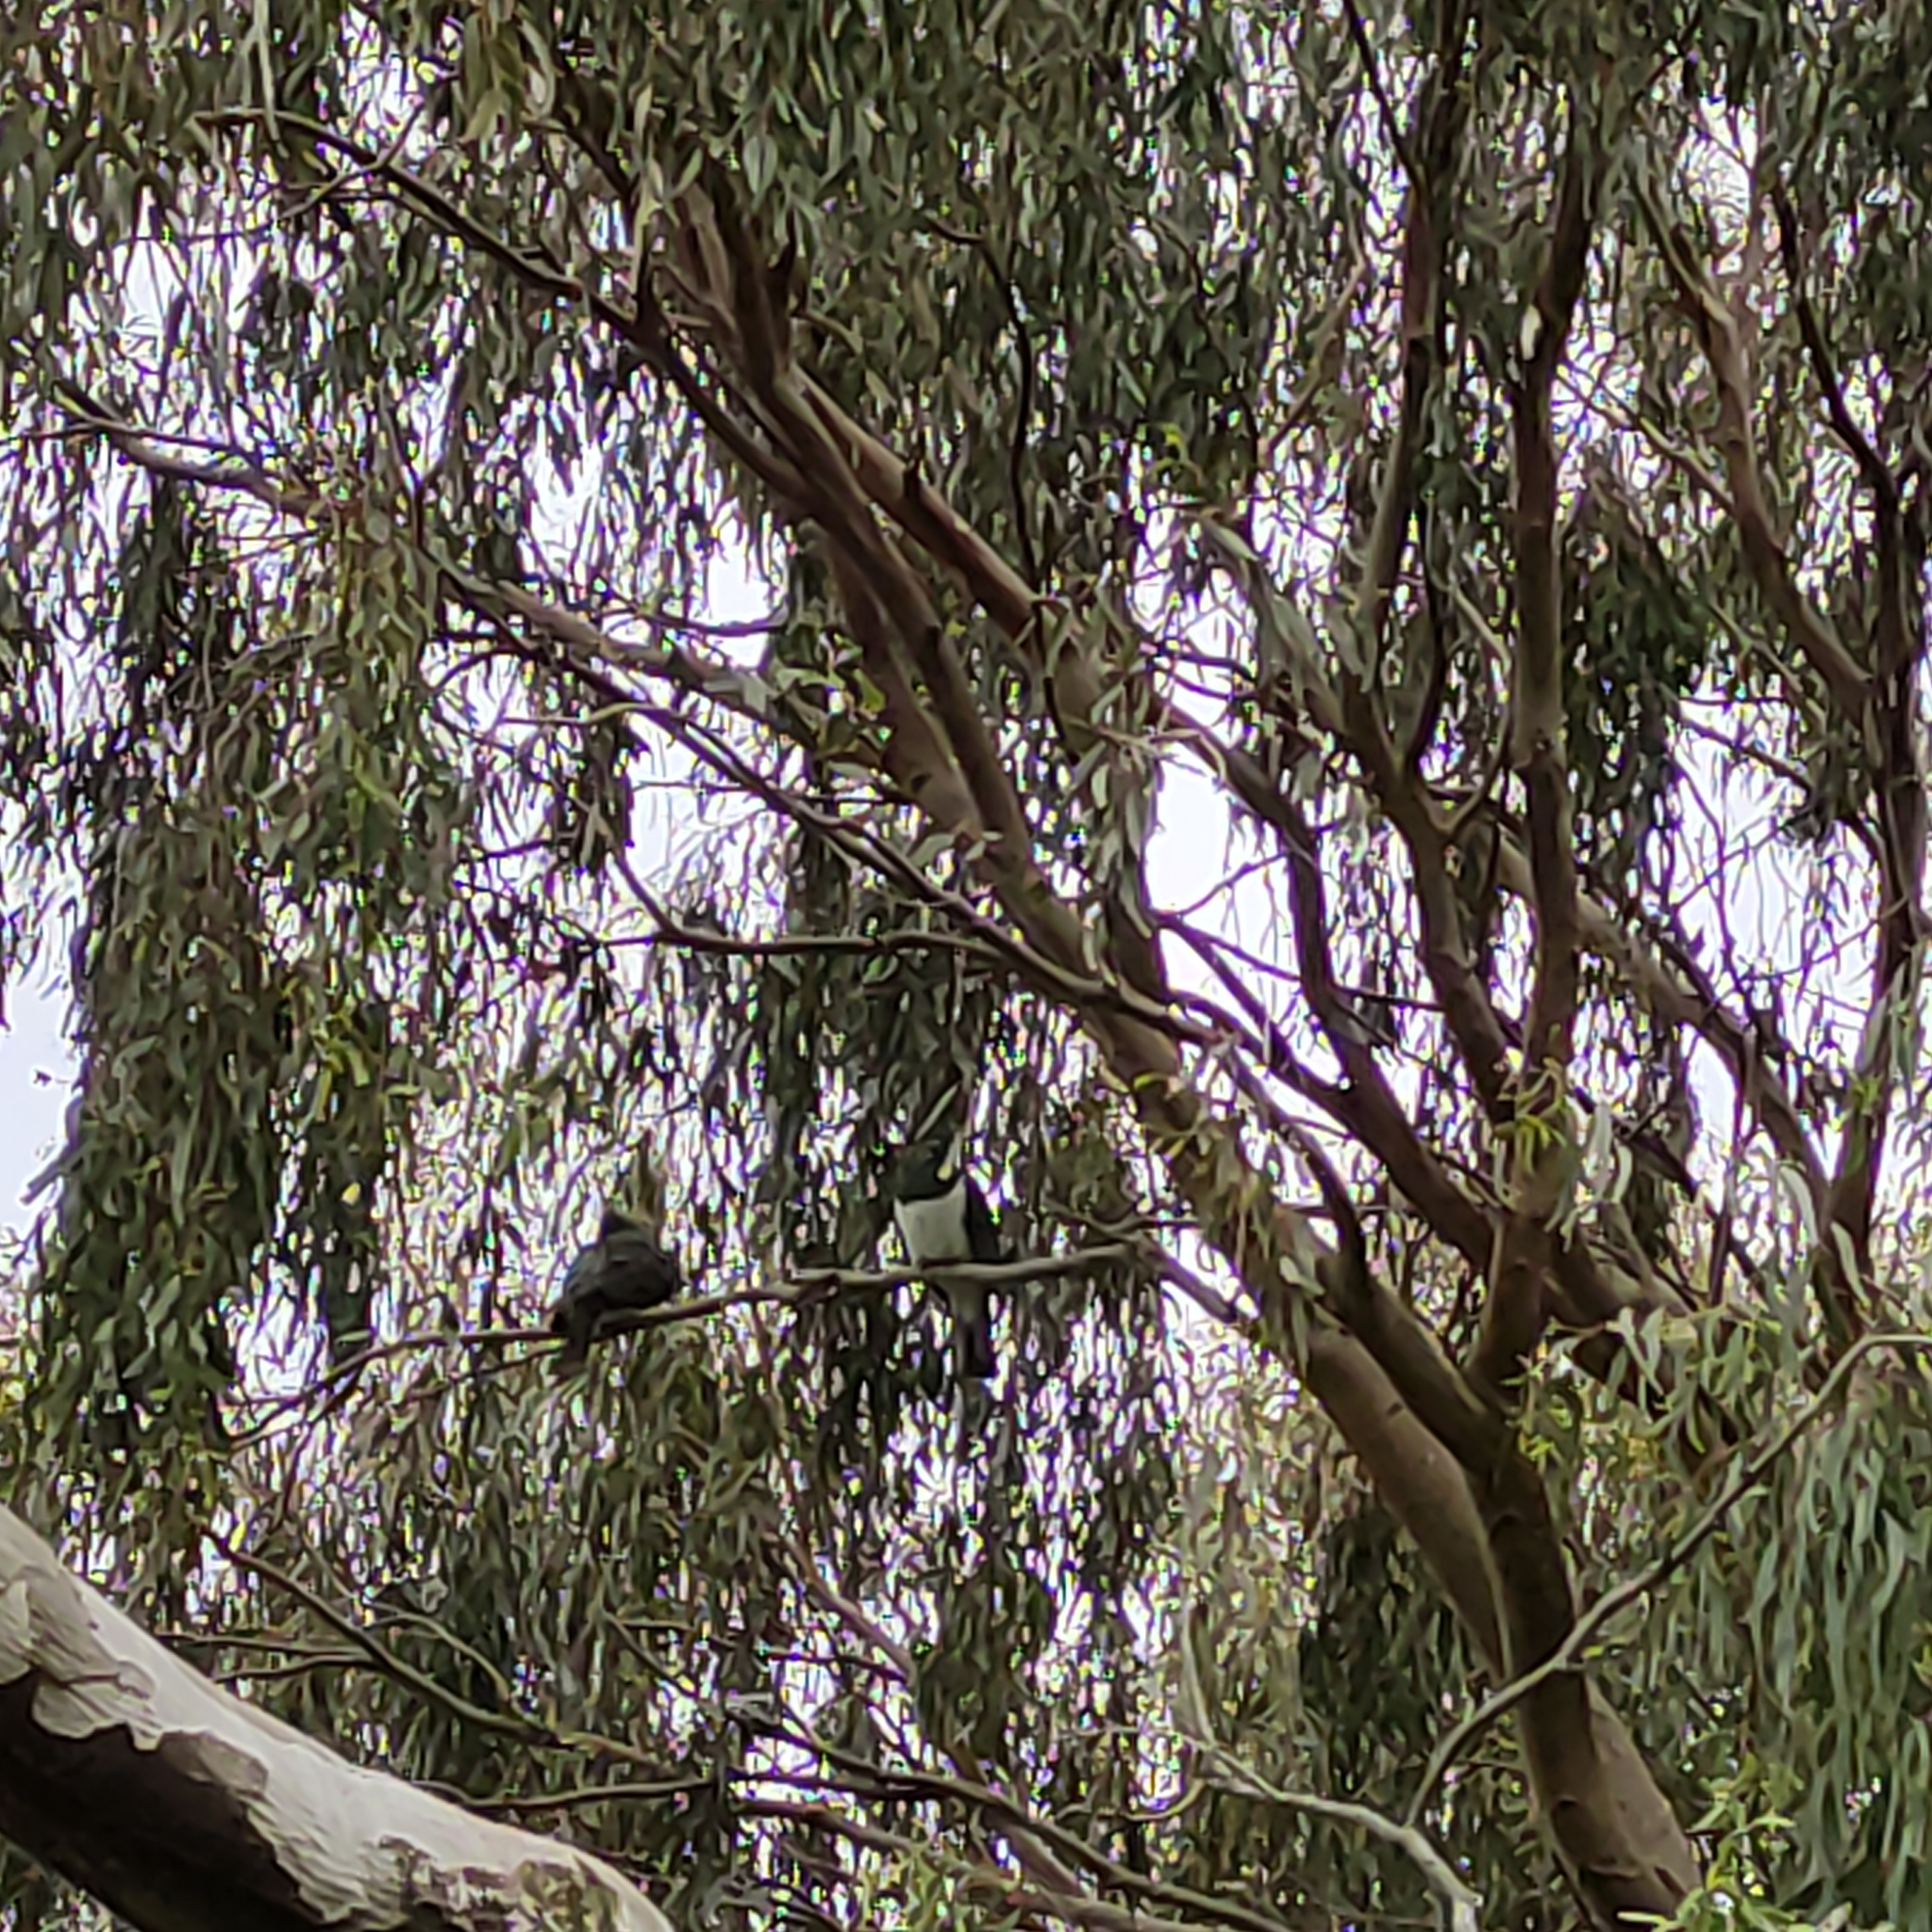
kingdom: Animalia
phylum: Chordata
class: Aves
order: Columbiformes
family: Columbidae
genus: Hemiphaga
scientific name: Hemiphaga novaeseelandiae
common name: New zealand pigeon
